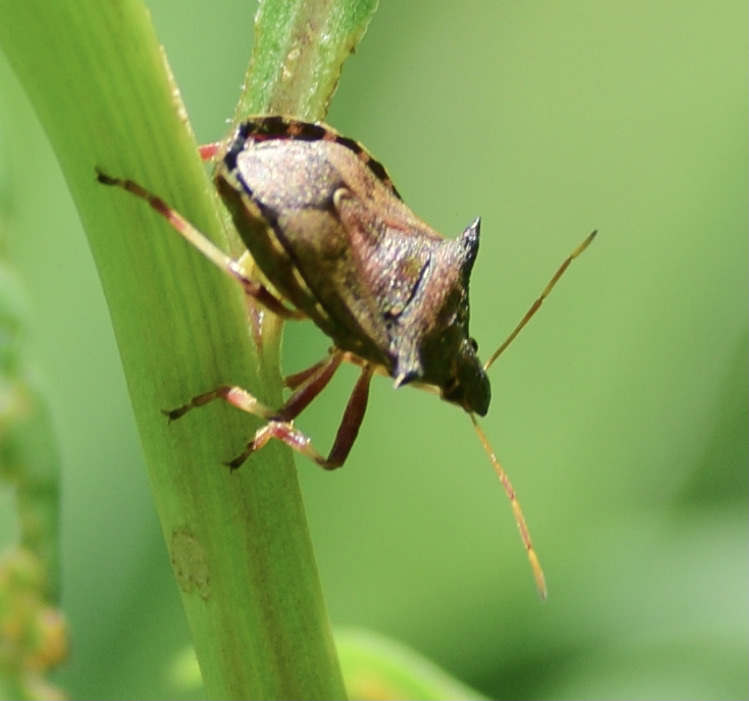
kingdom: Animalia
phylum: Arthropoda
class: Insecta
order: Hemiptera
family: Pentatomidae
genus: Picromerus
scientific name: Picromerus bidens
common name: Spiked shieldbug
